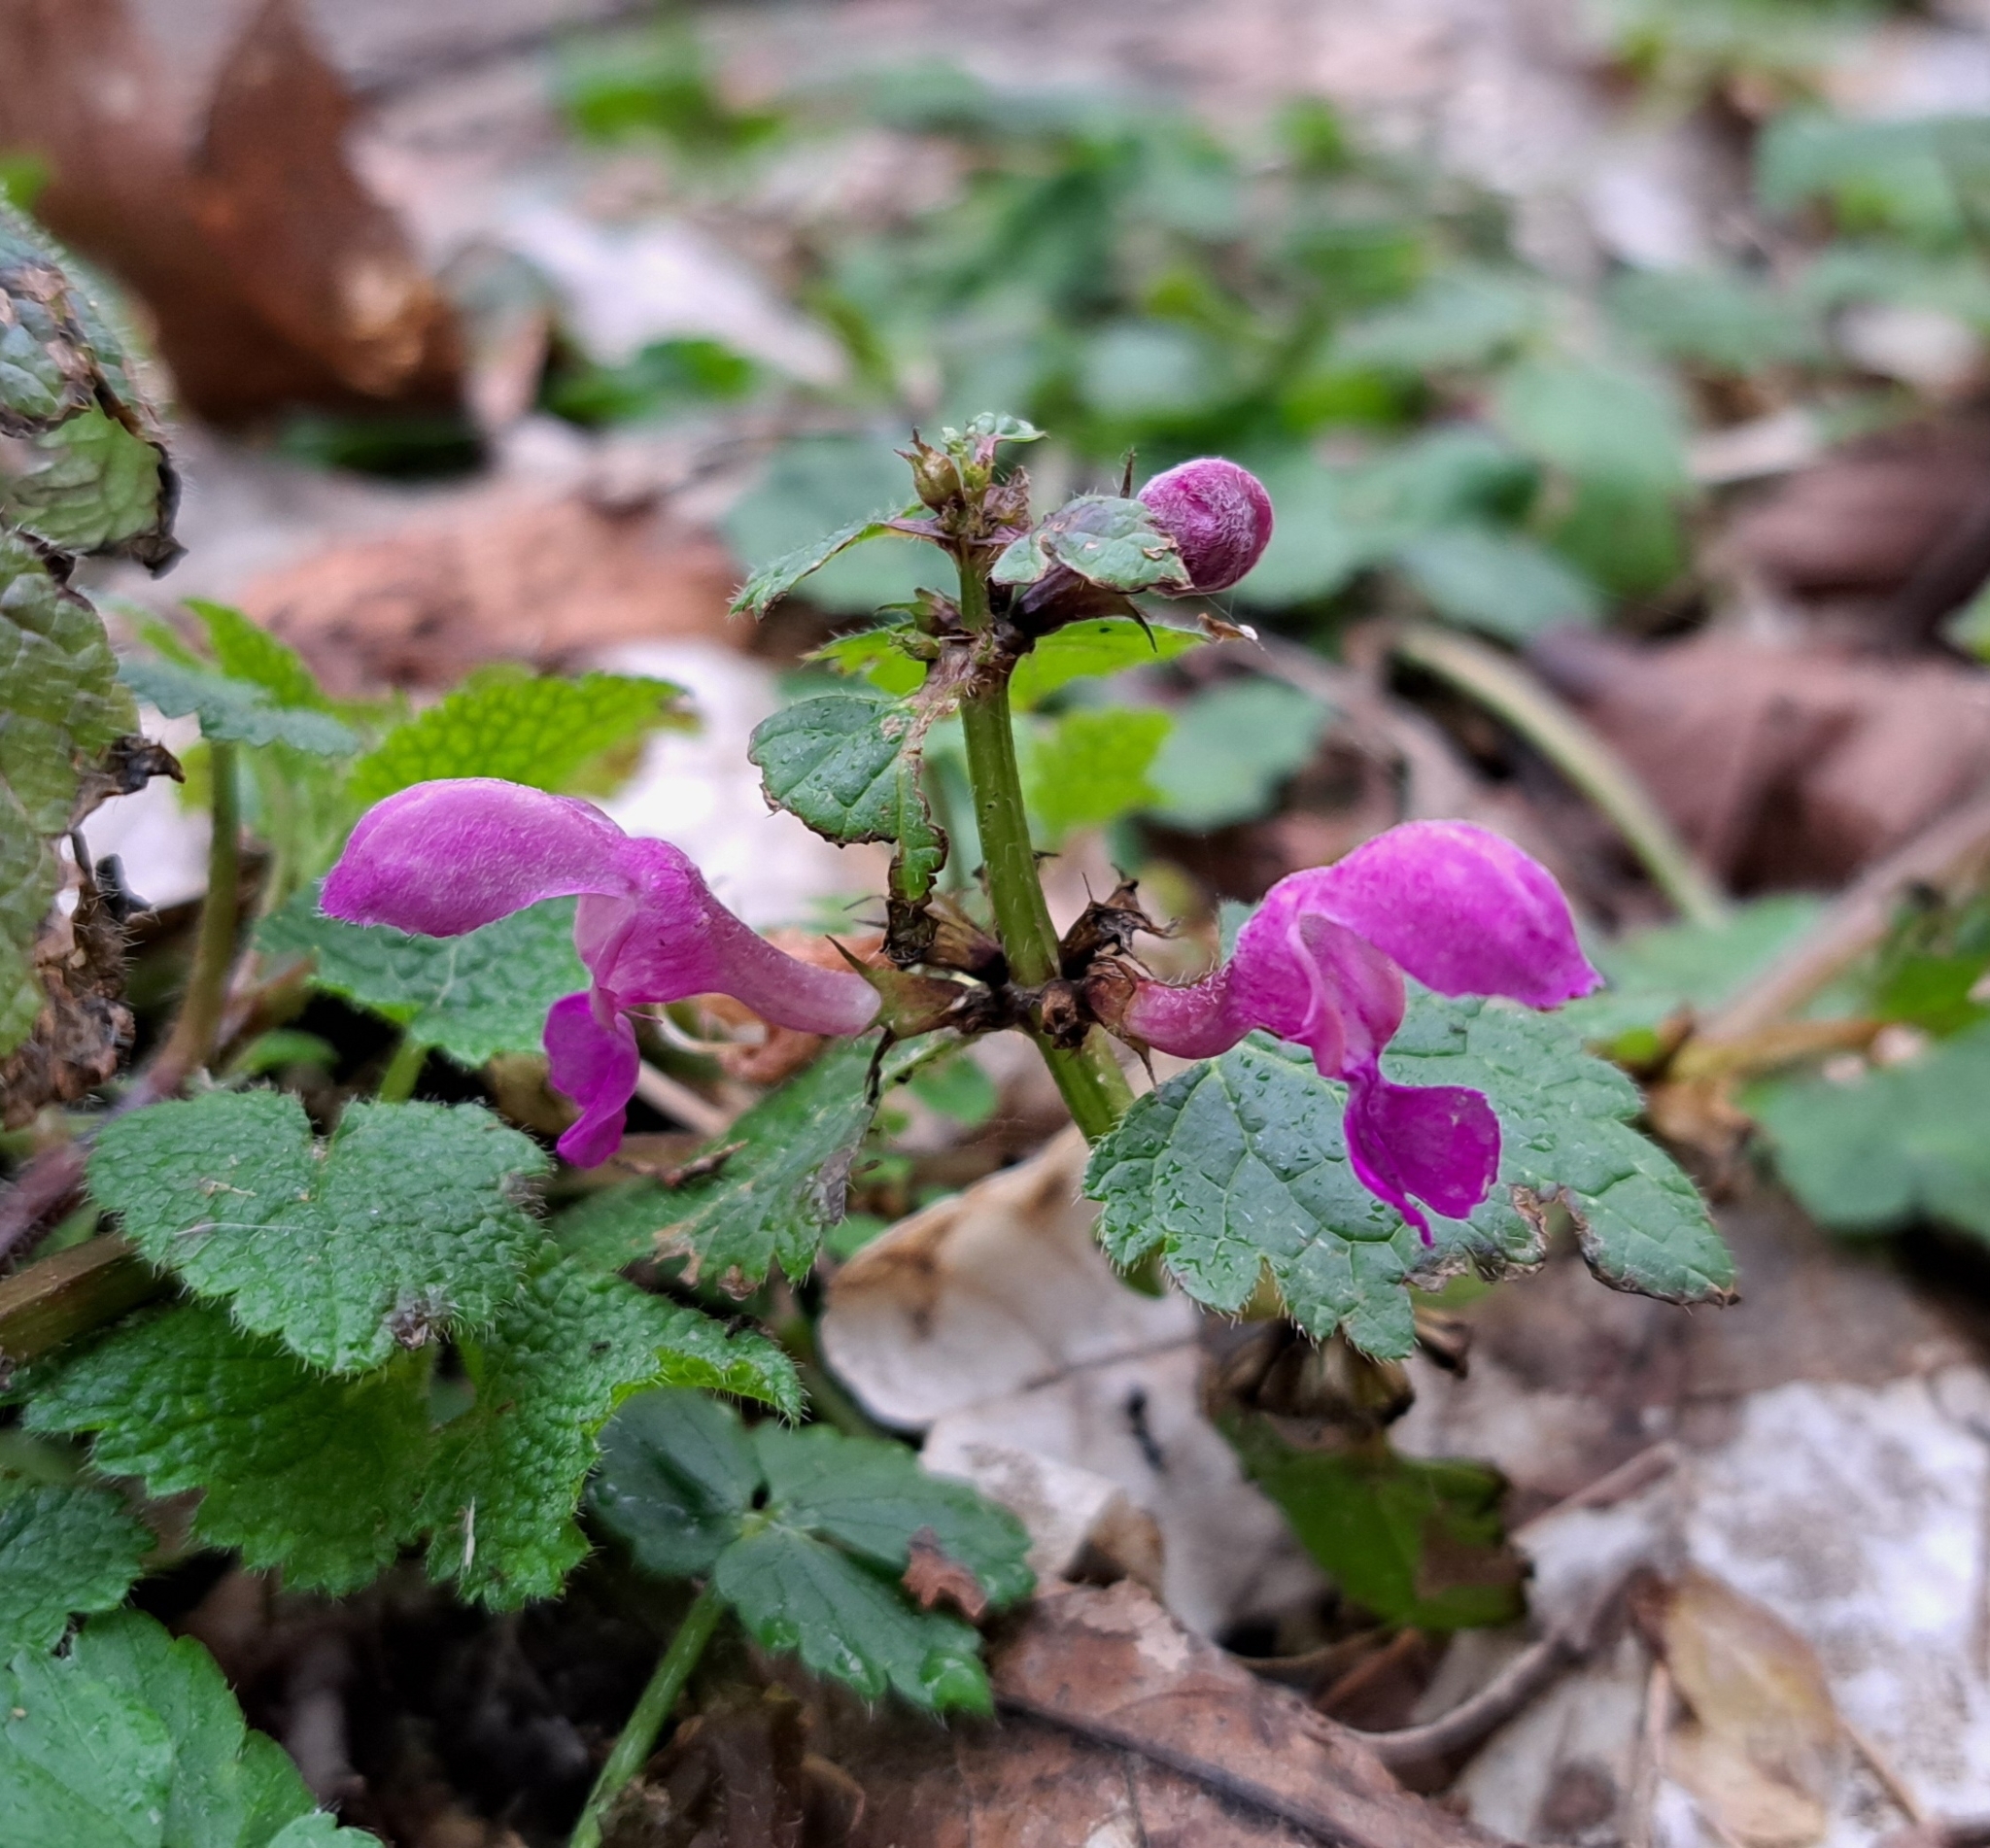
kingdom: Plantae
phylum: Tracheophyta
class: Magnoliopsida
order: Lamiales
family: Lamiaceae
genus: Lamium
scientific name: Lamium maculatum
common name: Spotted dead-nettle
